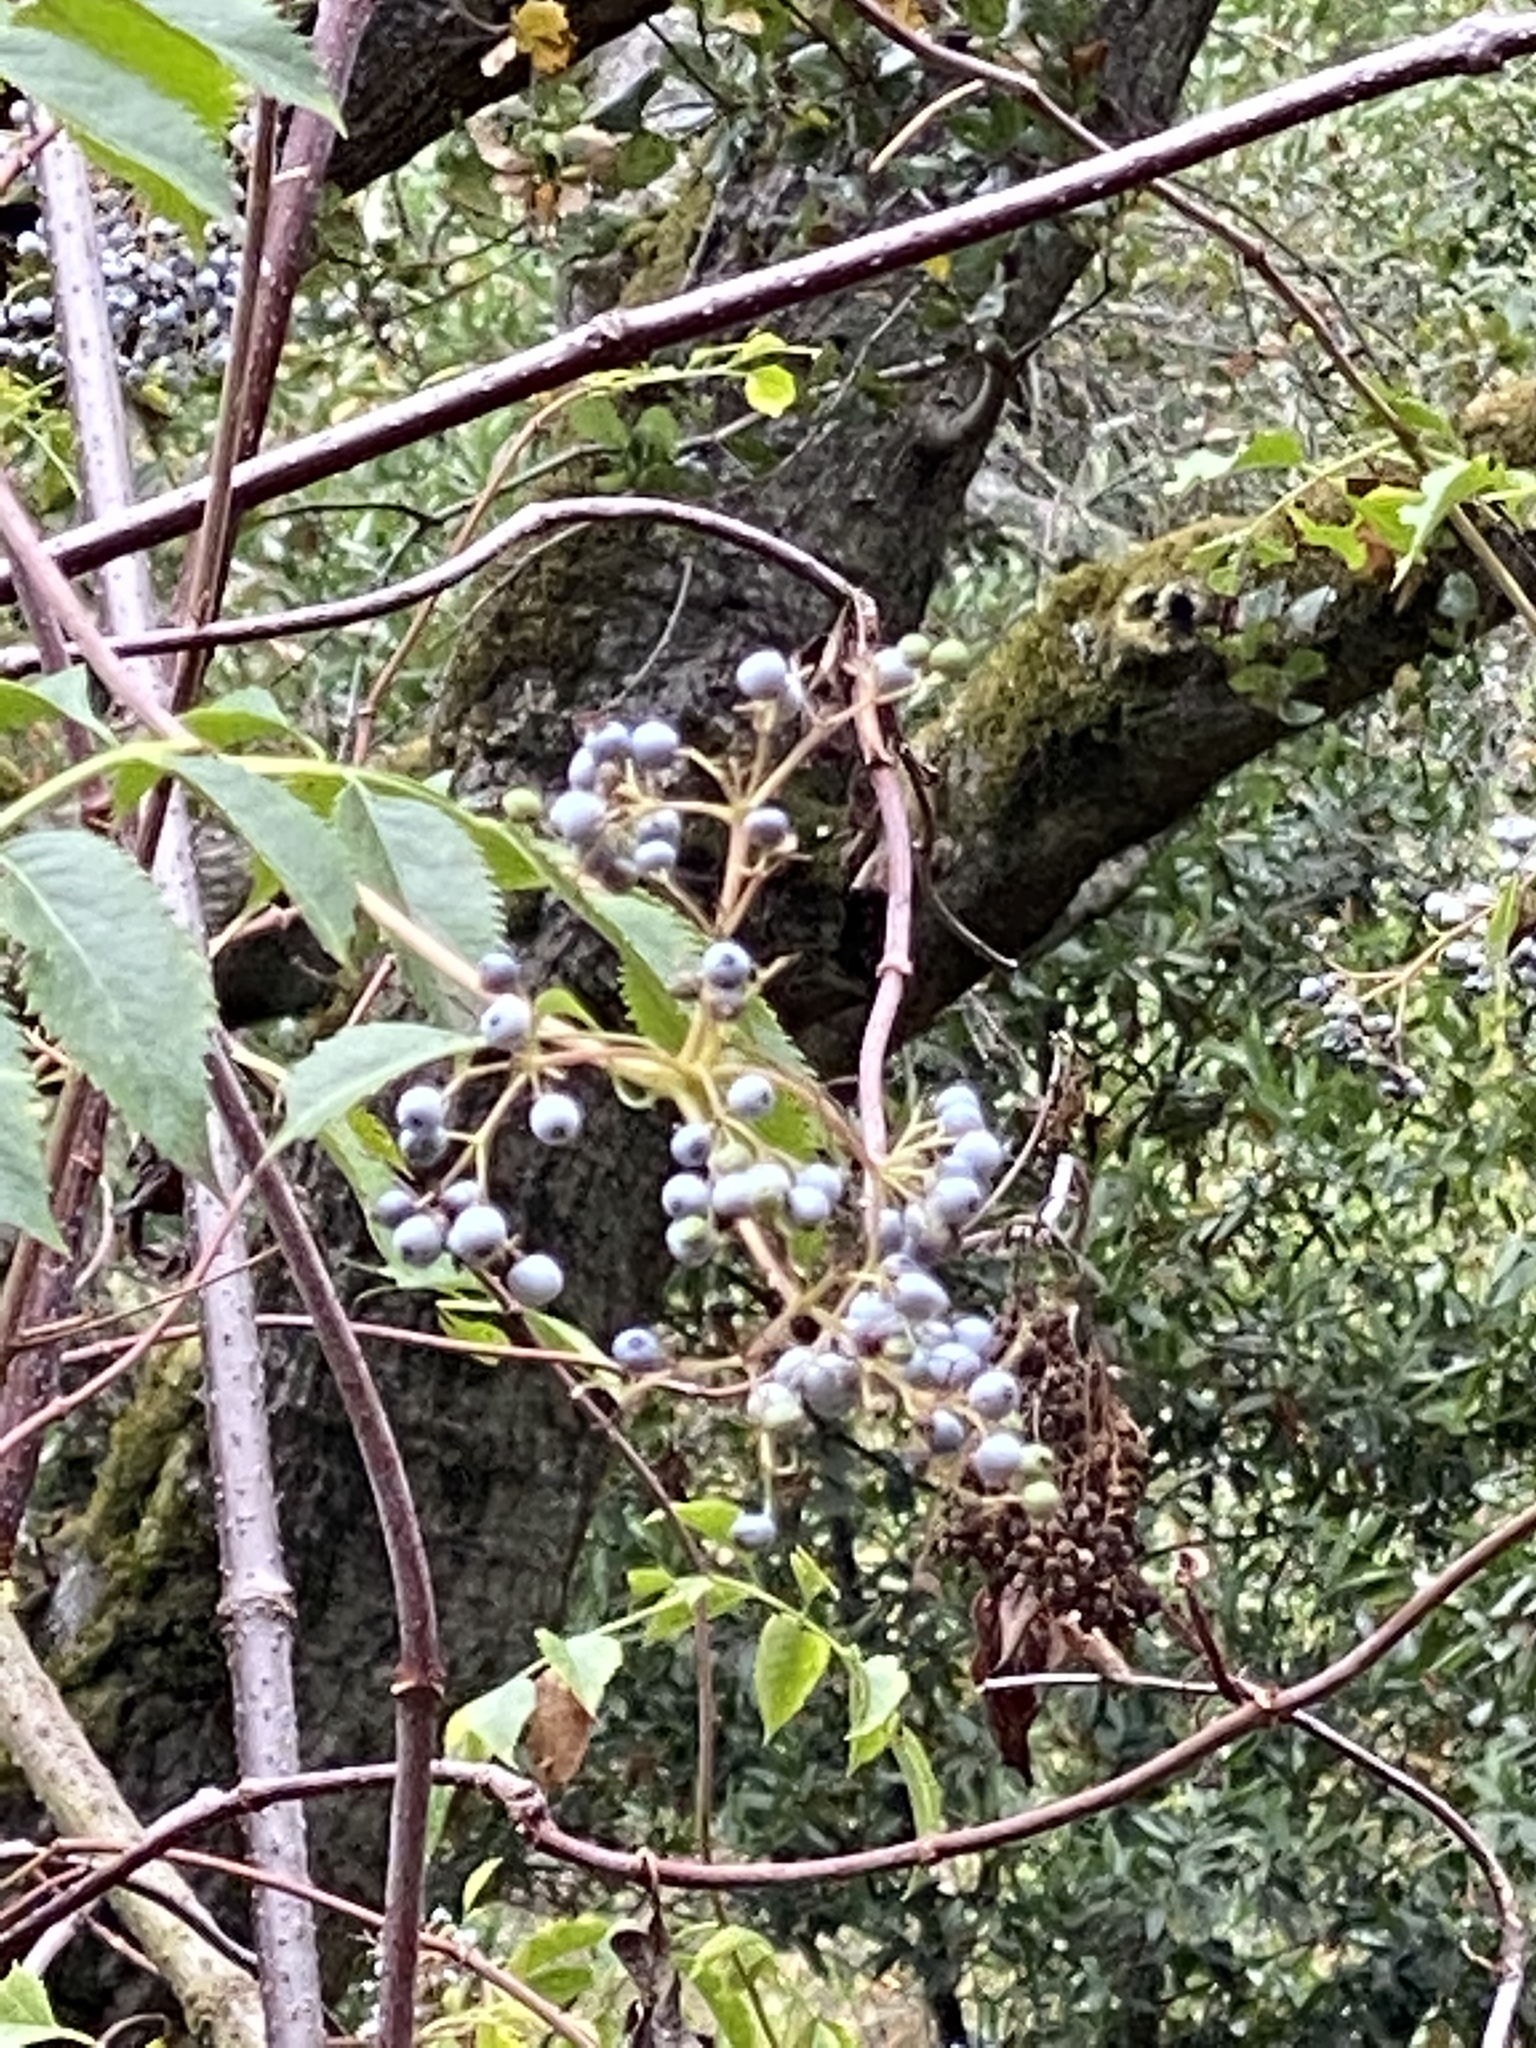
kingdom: Plantae
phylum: Tracheophyta
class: Magnoliopsida
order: Dipsacales
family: Viburnaceae
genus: Sambucus
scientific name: Sambucus cerulea
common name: Blue elder
